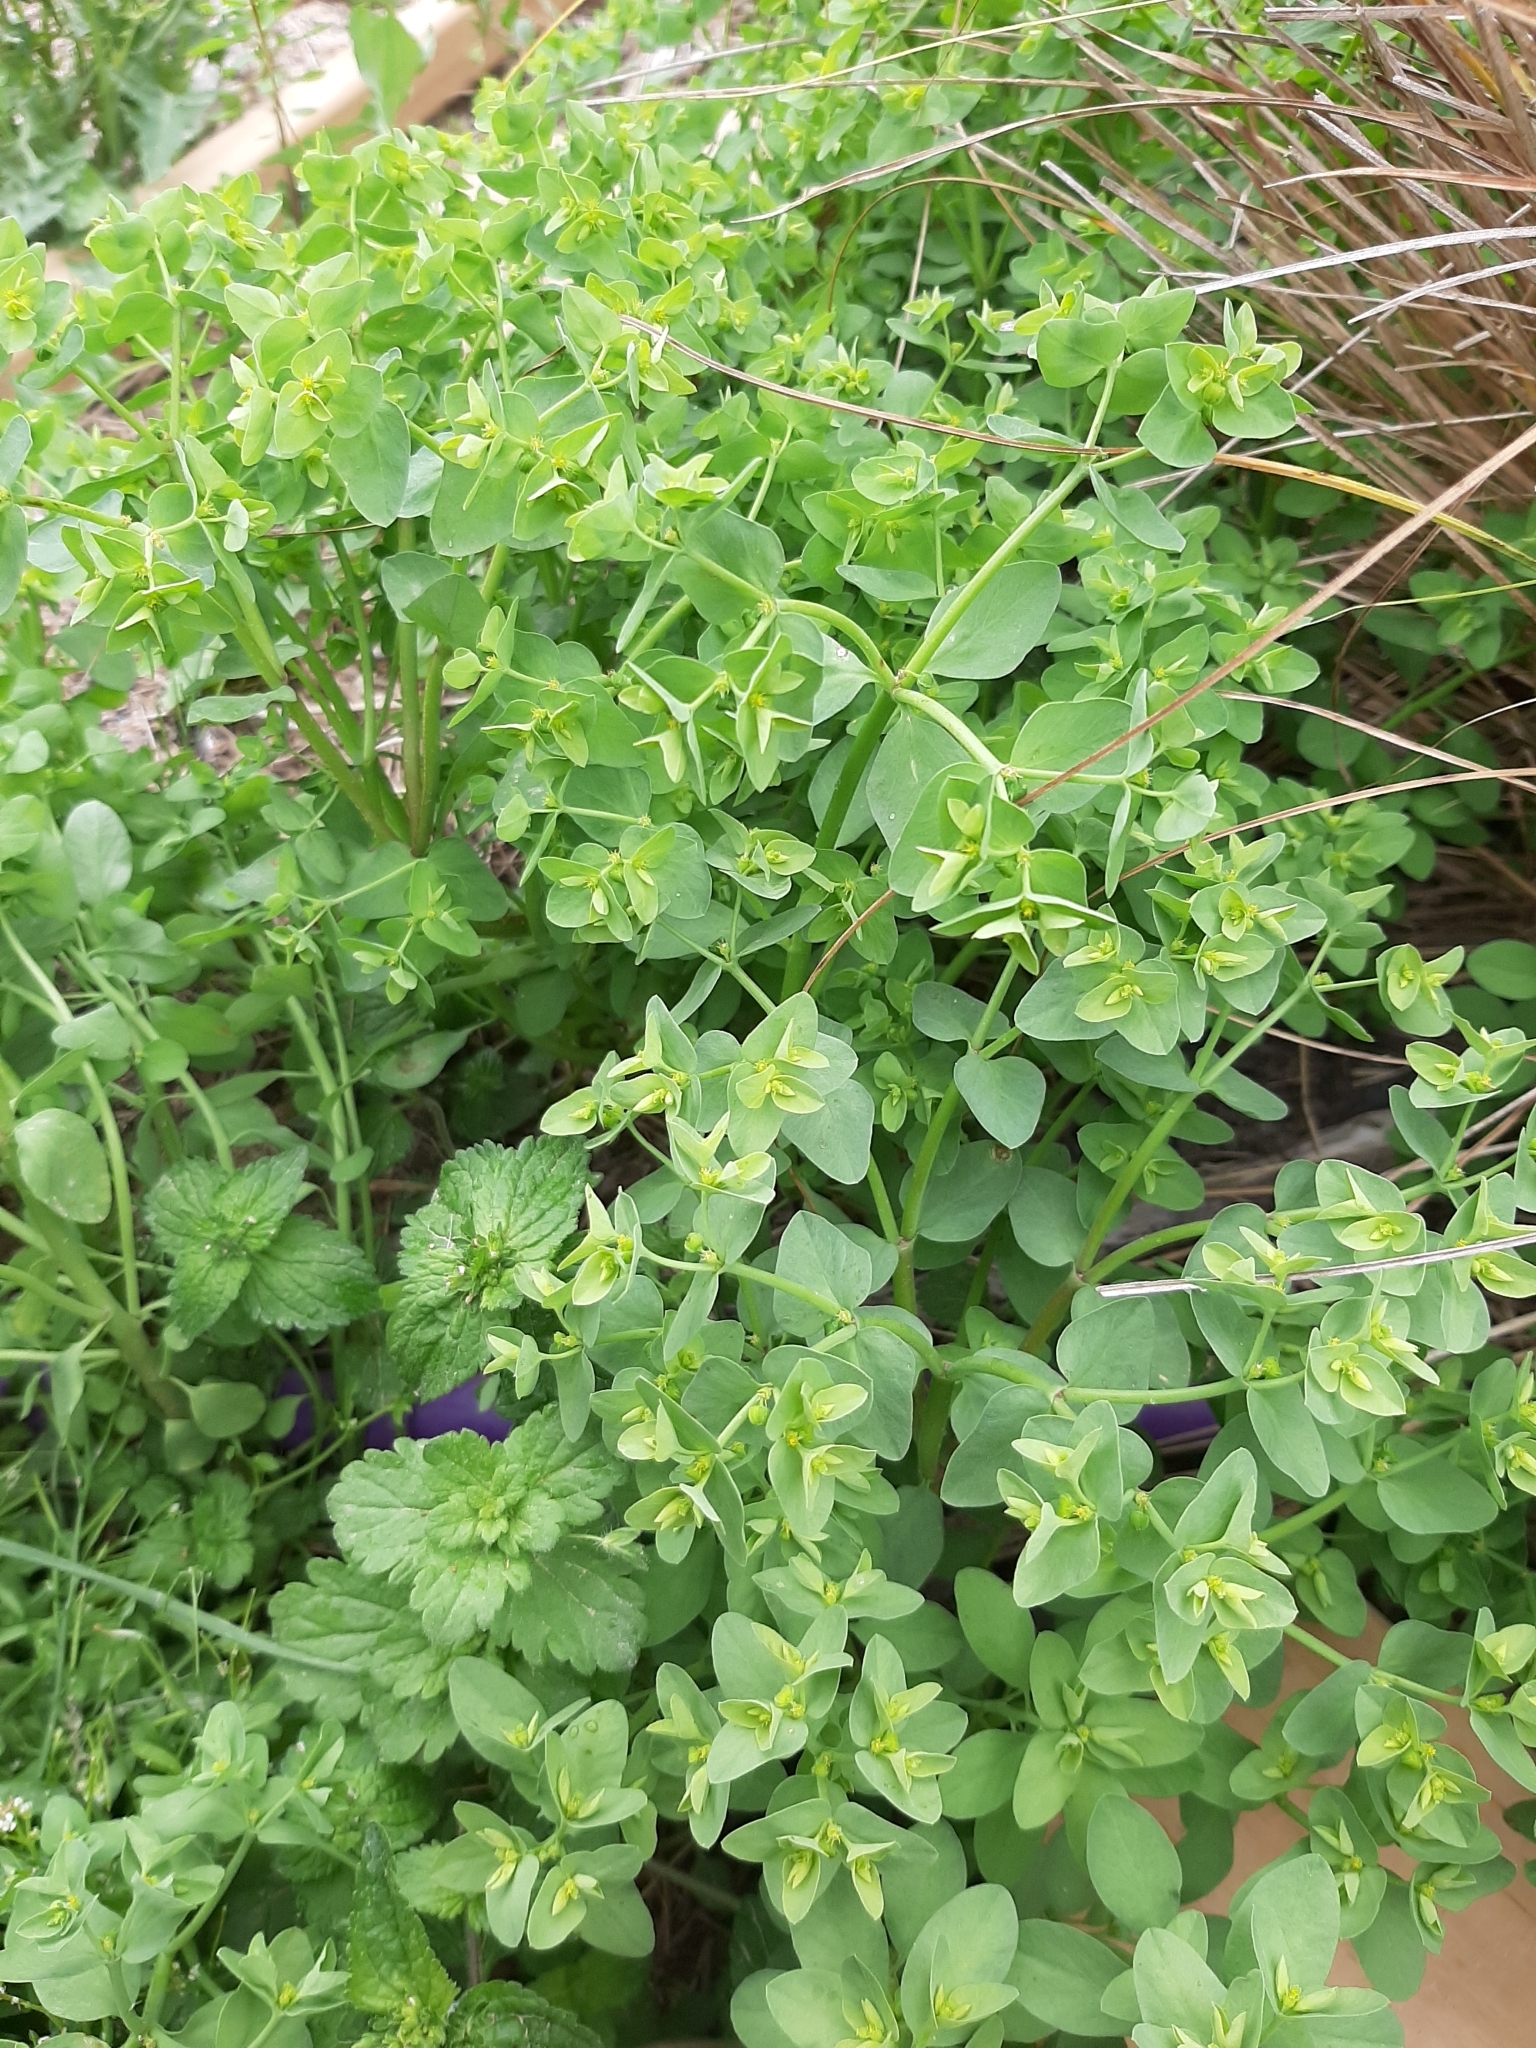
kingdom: Plantae
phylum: Tracheophyta
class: Magnoliopsida
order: Malpighiales
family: Euphorbiaceae
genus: Euphorbia
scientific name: Euphorbia peplus
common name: Petty spurge
